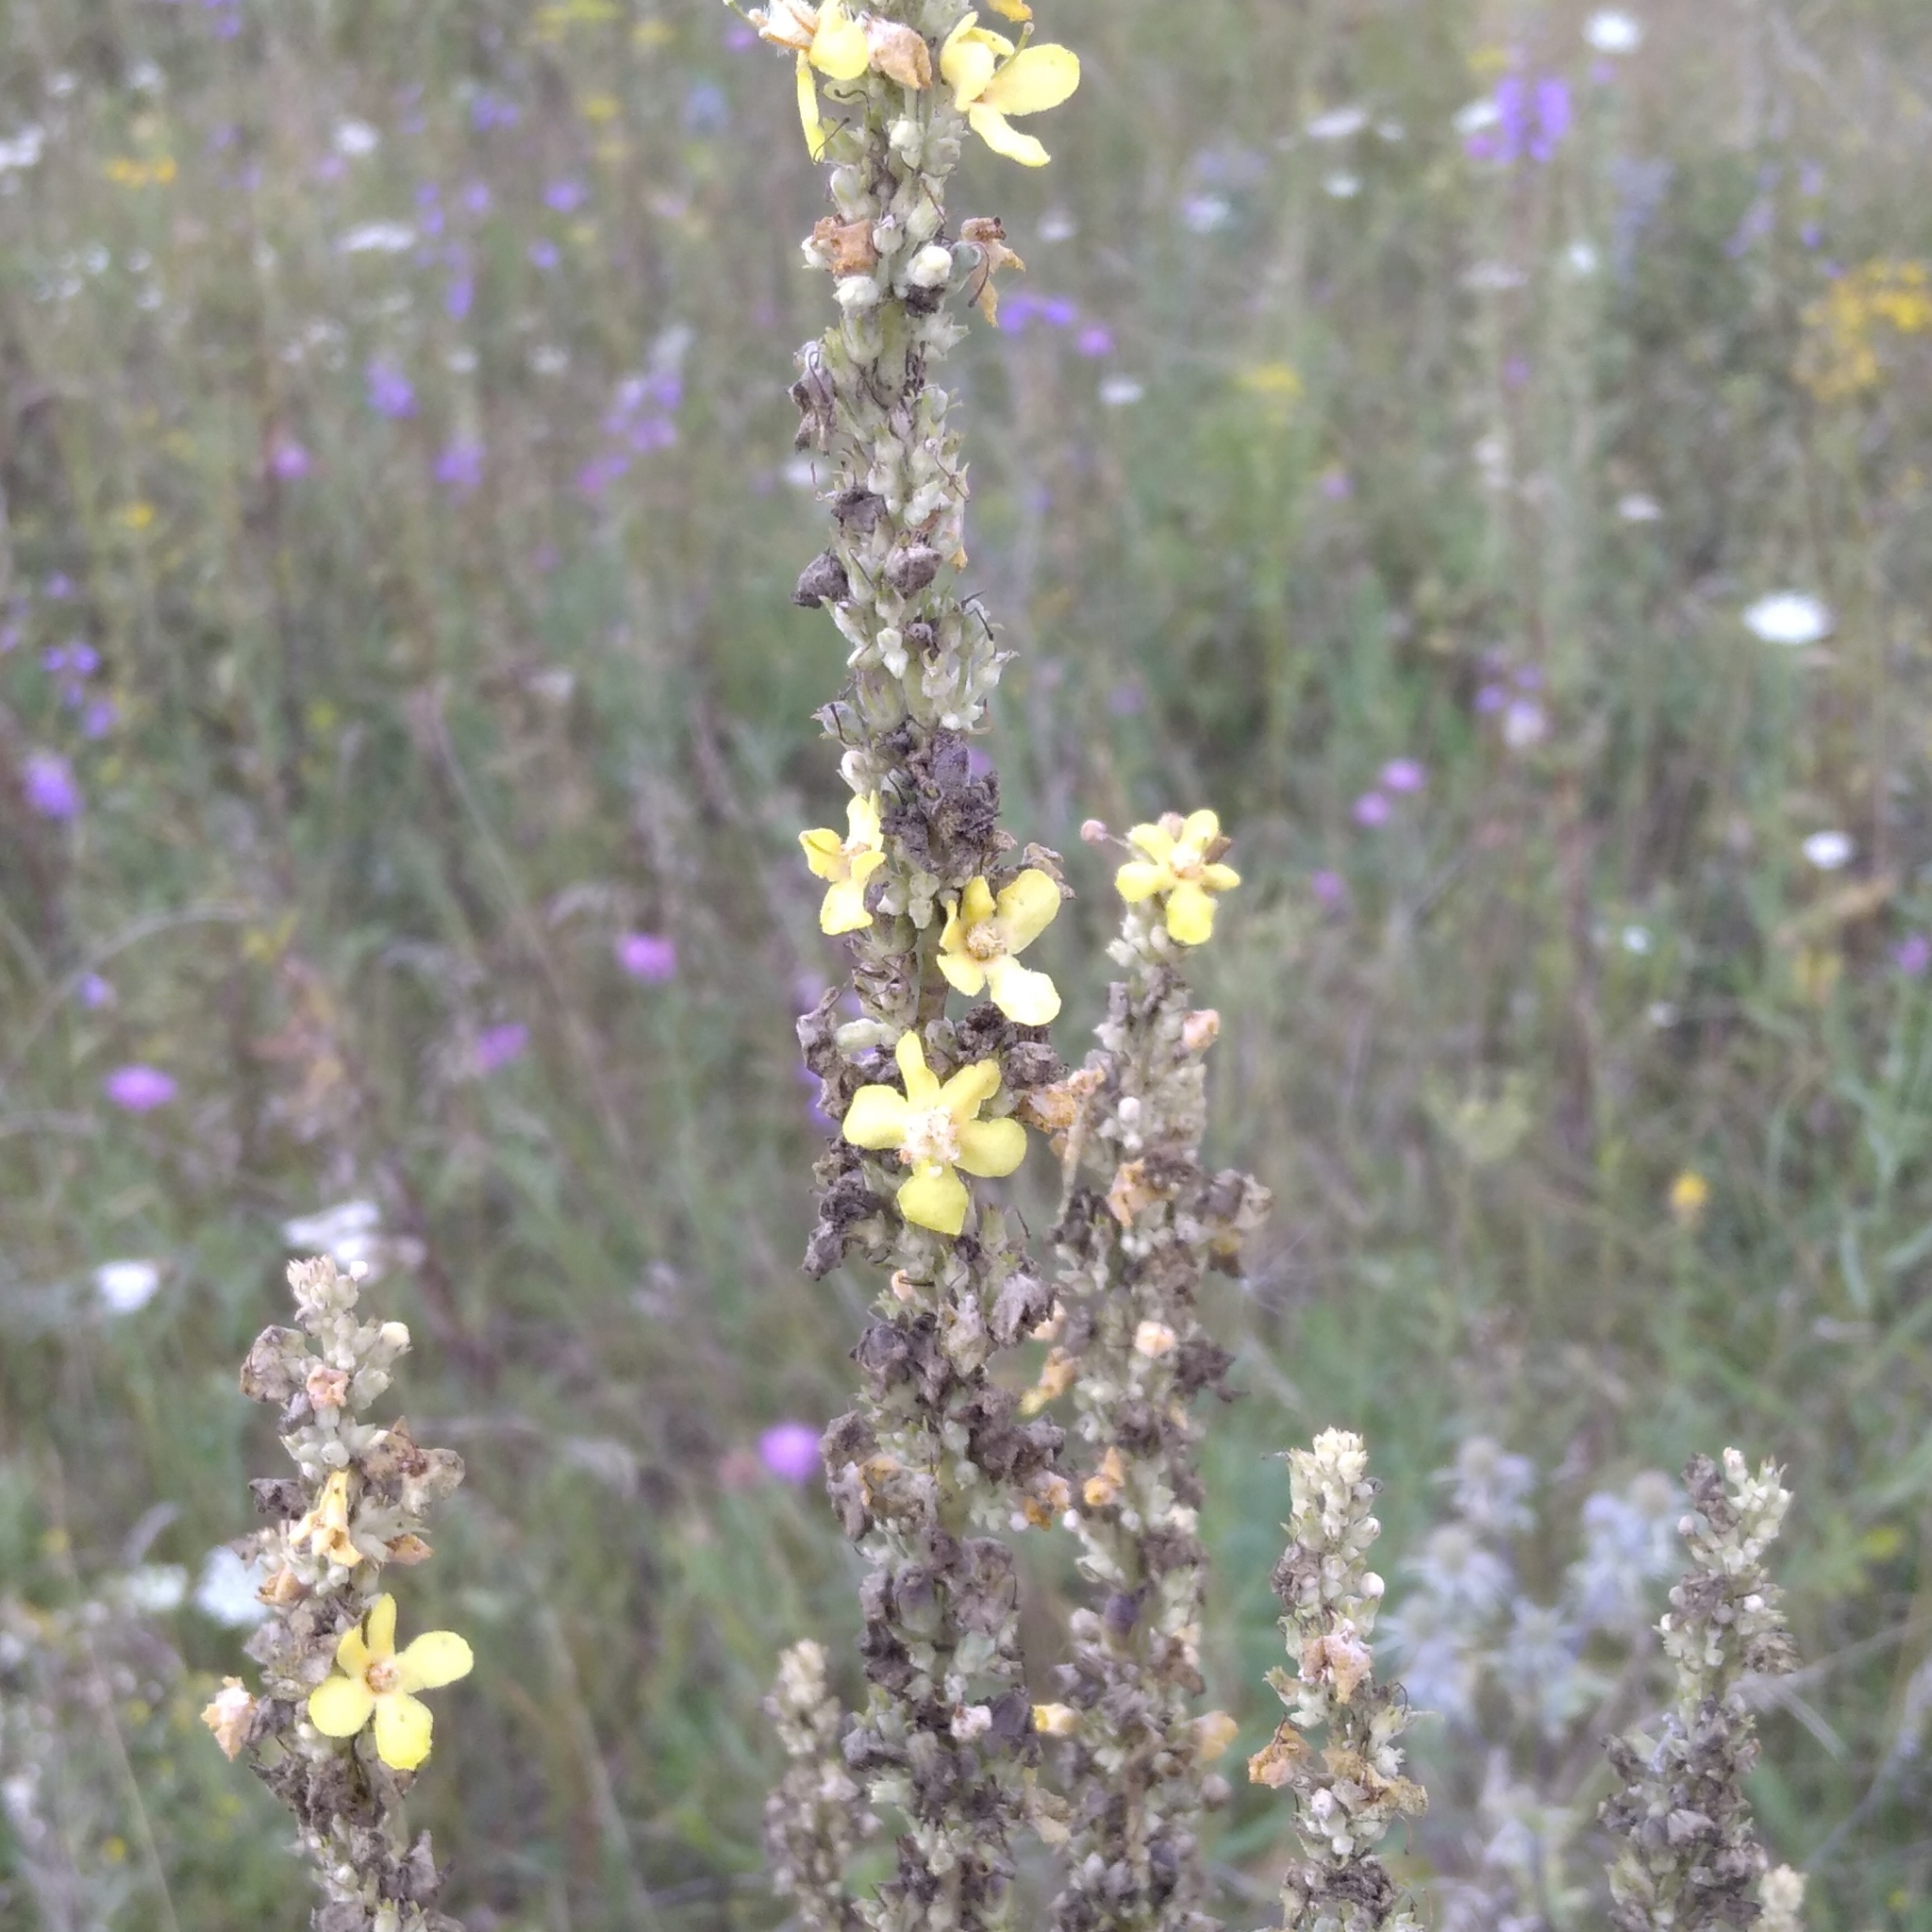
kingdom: Plantae
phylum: Tracheophyta
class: Magnoliopsida
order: Lamiales
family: Scrophulariaceae
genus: Verbascum
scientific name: Verbascum lychnitis
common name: White mullein
